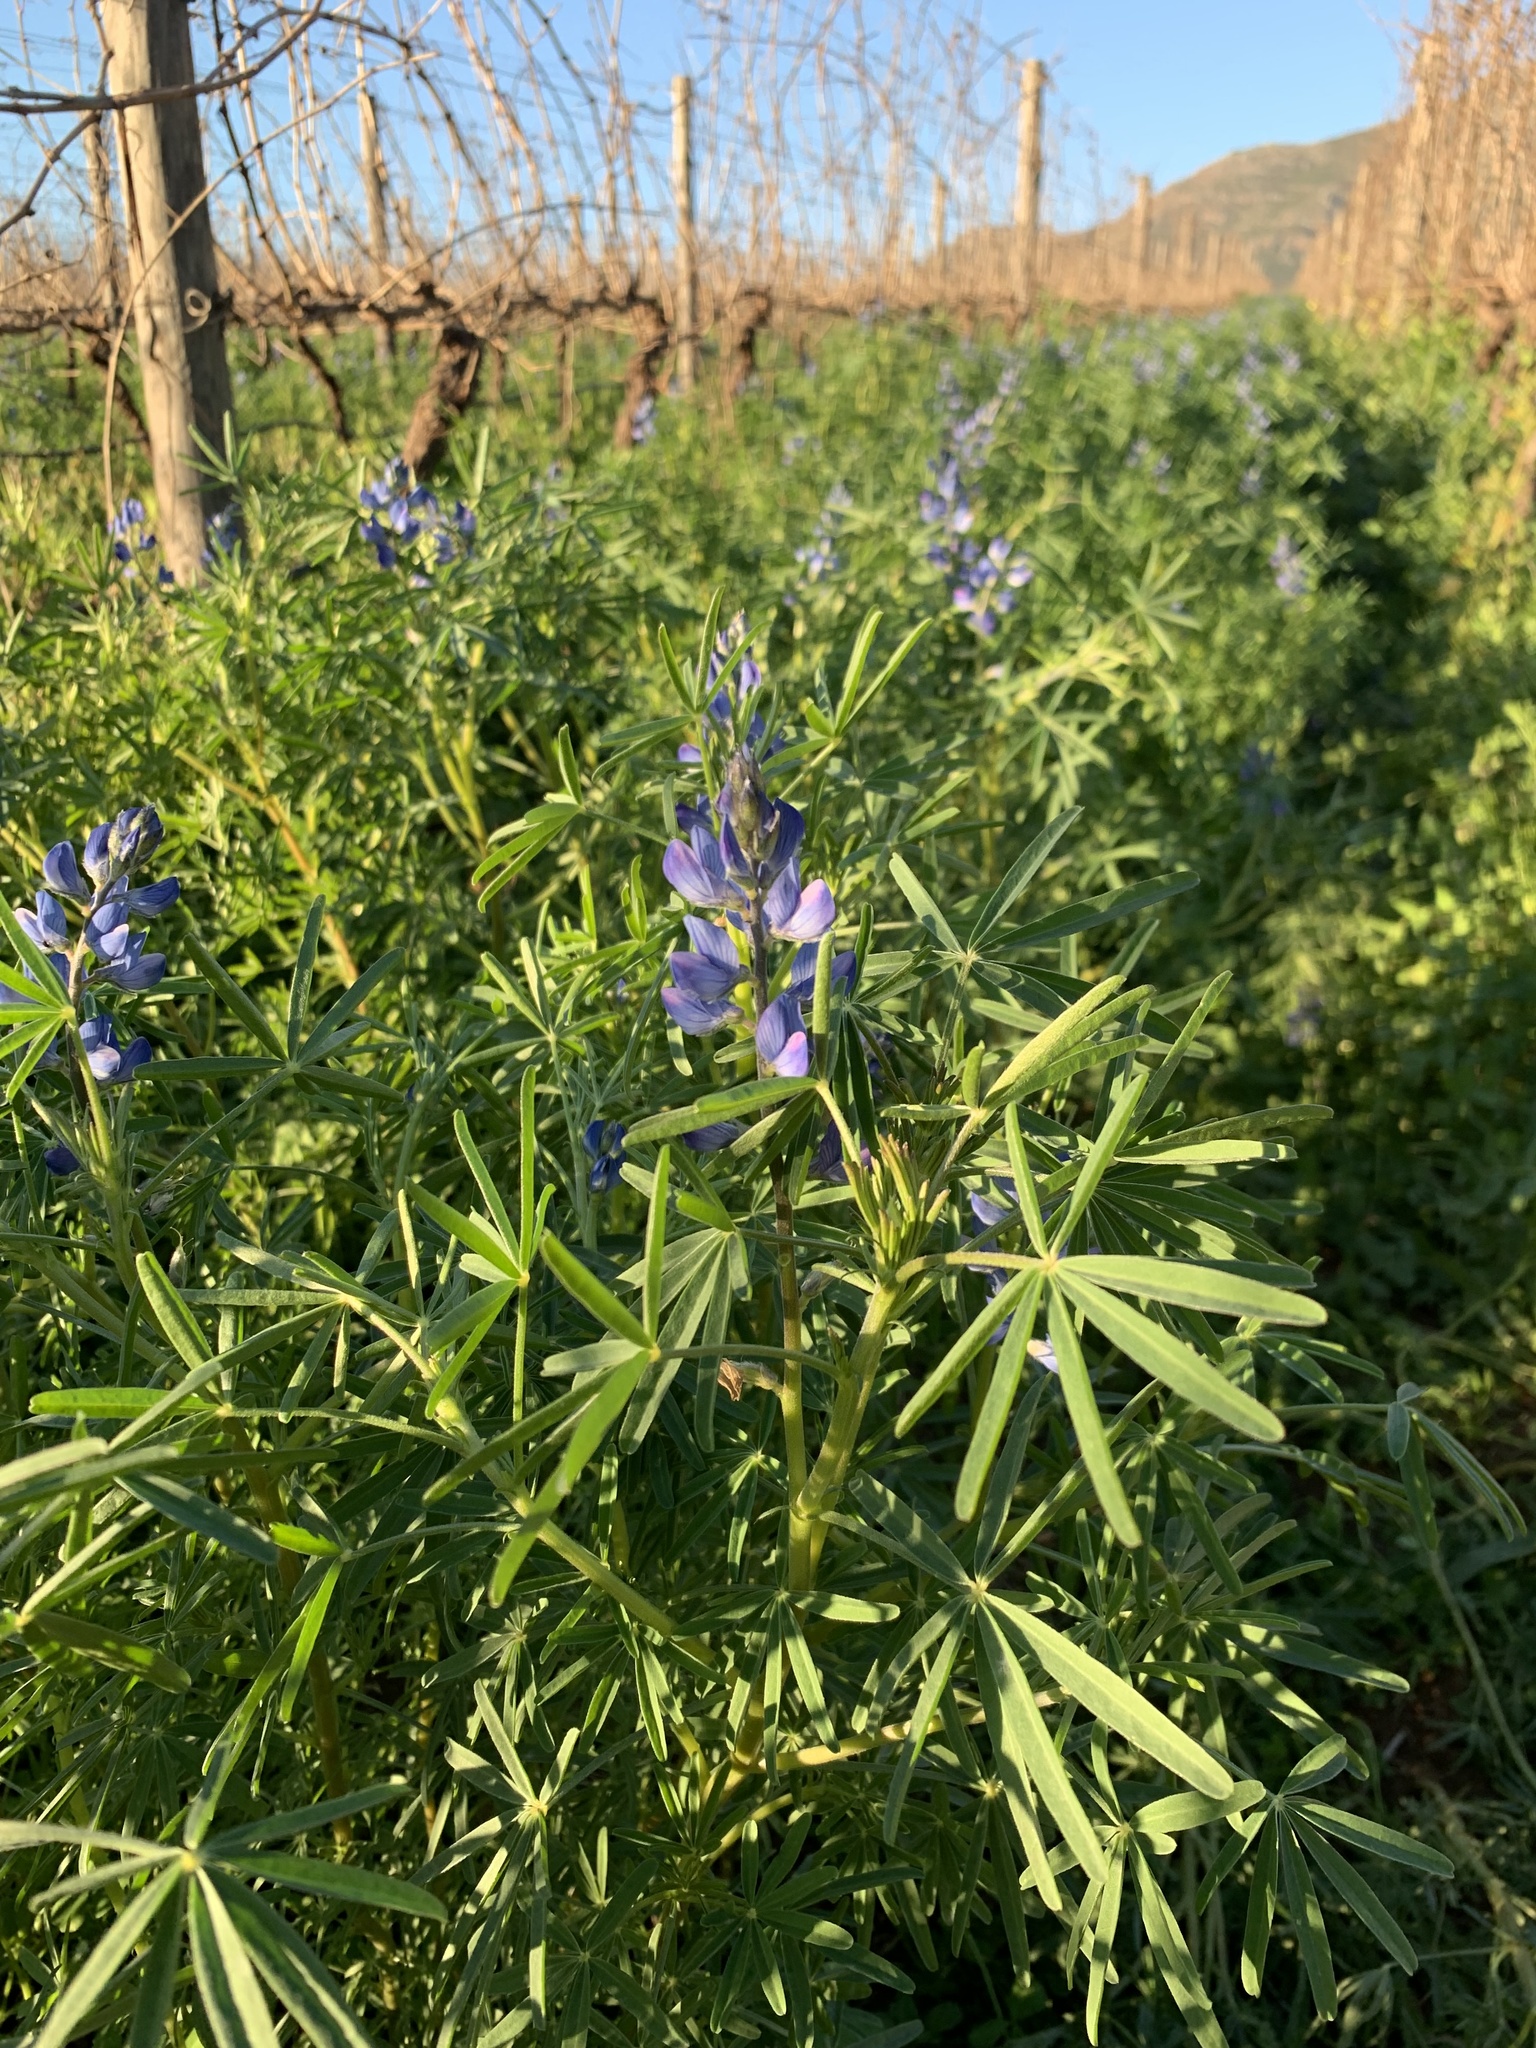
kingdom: Plantae
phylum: Tracheophyta
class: Magnoliopsida
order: Fabales
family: Fabaceae
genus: Lupinus
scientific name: Lupinus angustifolius
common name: Narrow-leaved lupin
